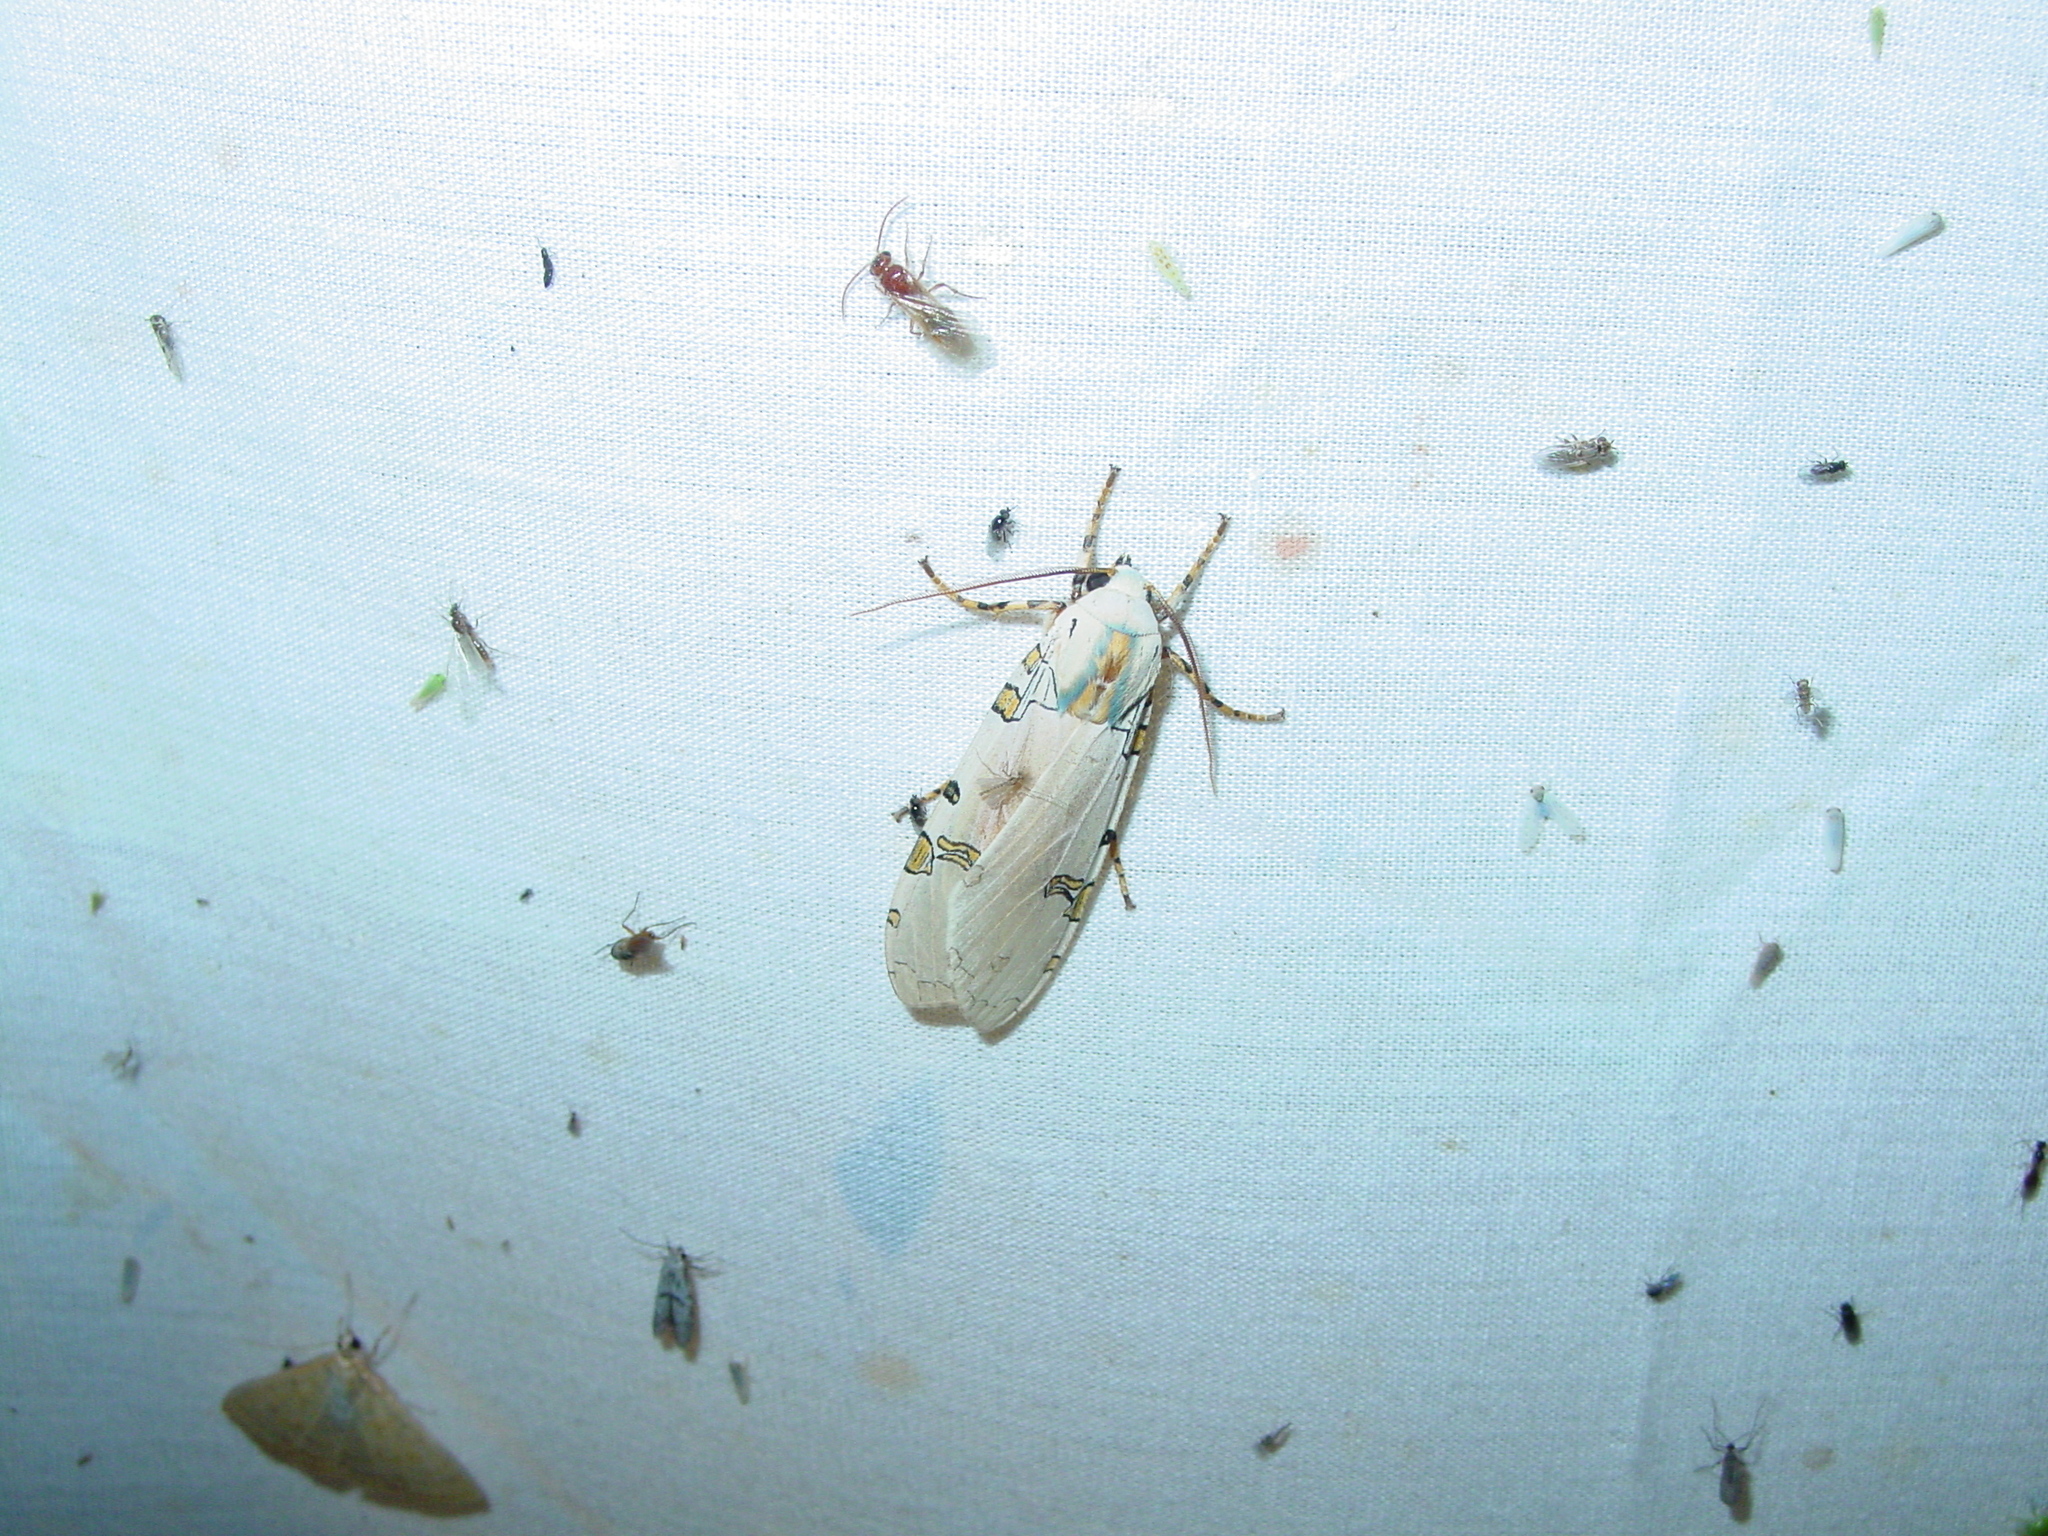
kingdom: Animalia
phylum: Arthropoda
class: Insecta
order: Lepidoptera
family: Erebidae
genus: Halysidota
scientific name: Halysidota davisii
